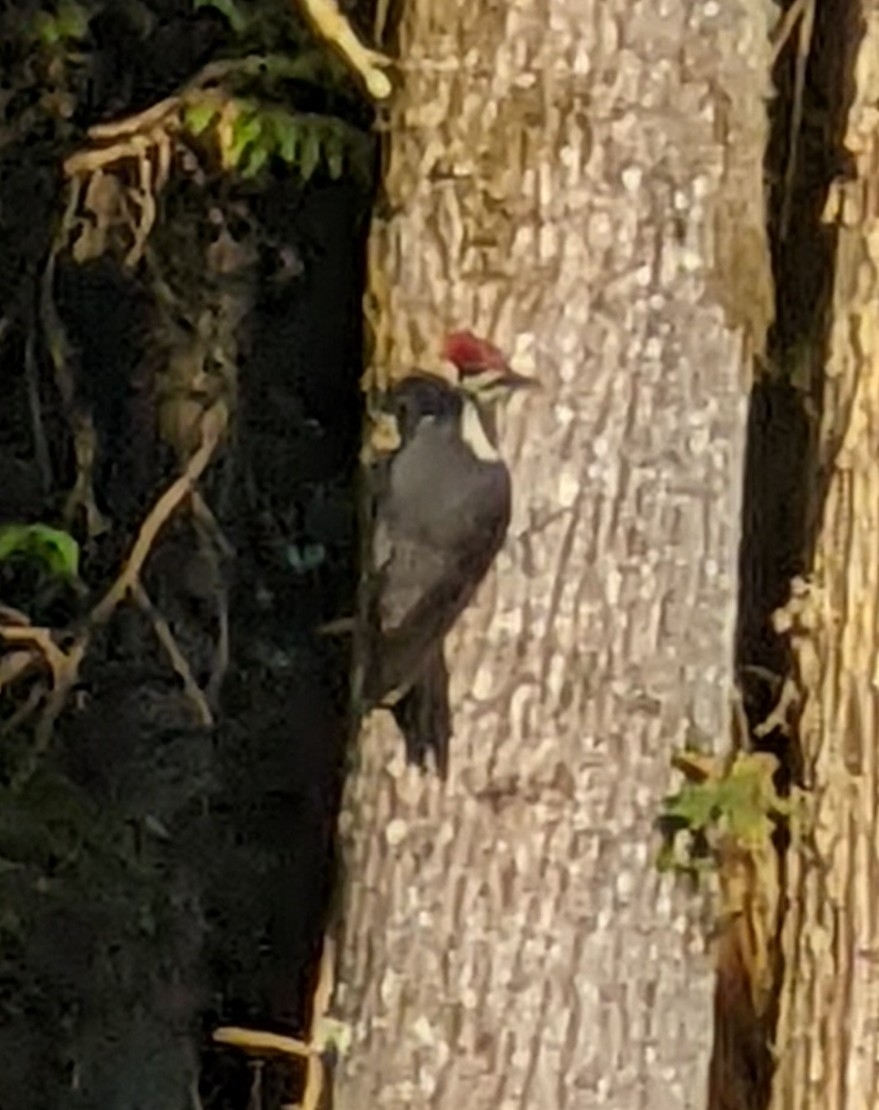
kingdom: Animalia
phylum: Chordata
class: Aves
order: Piciformes
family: Picidae
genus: Dryocopus
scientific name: Dryocopus pileatus
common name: Pileated woodpecker
